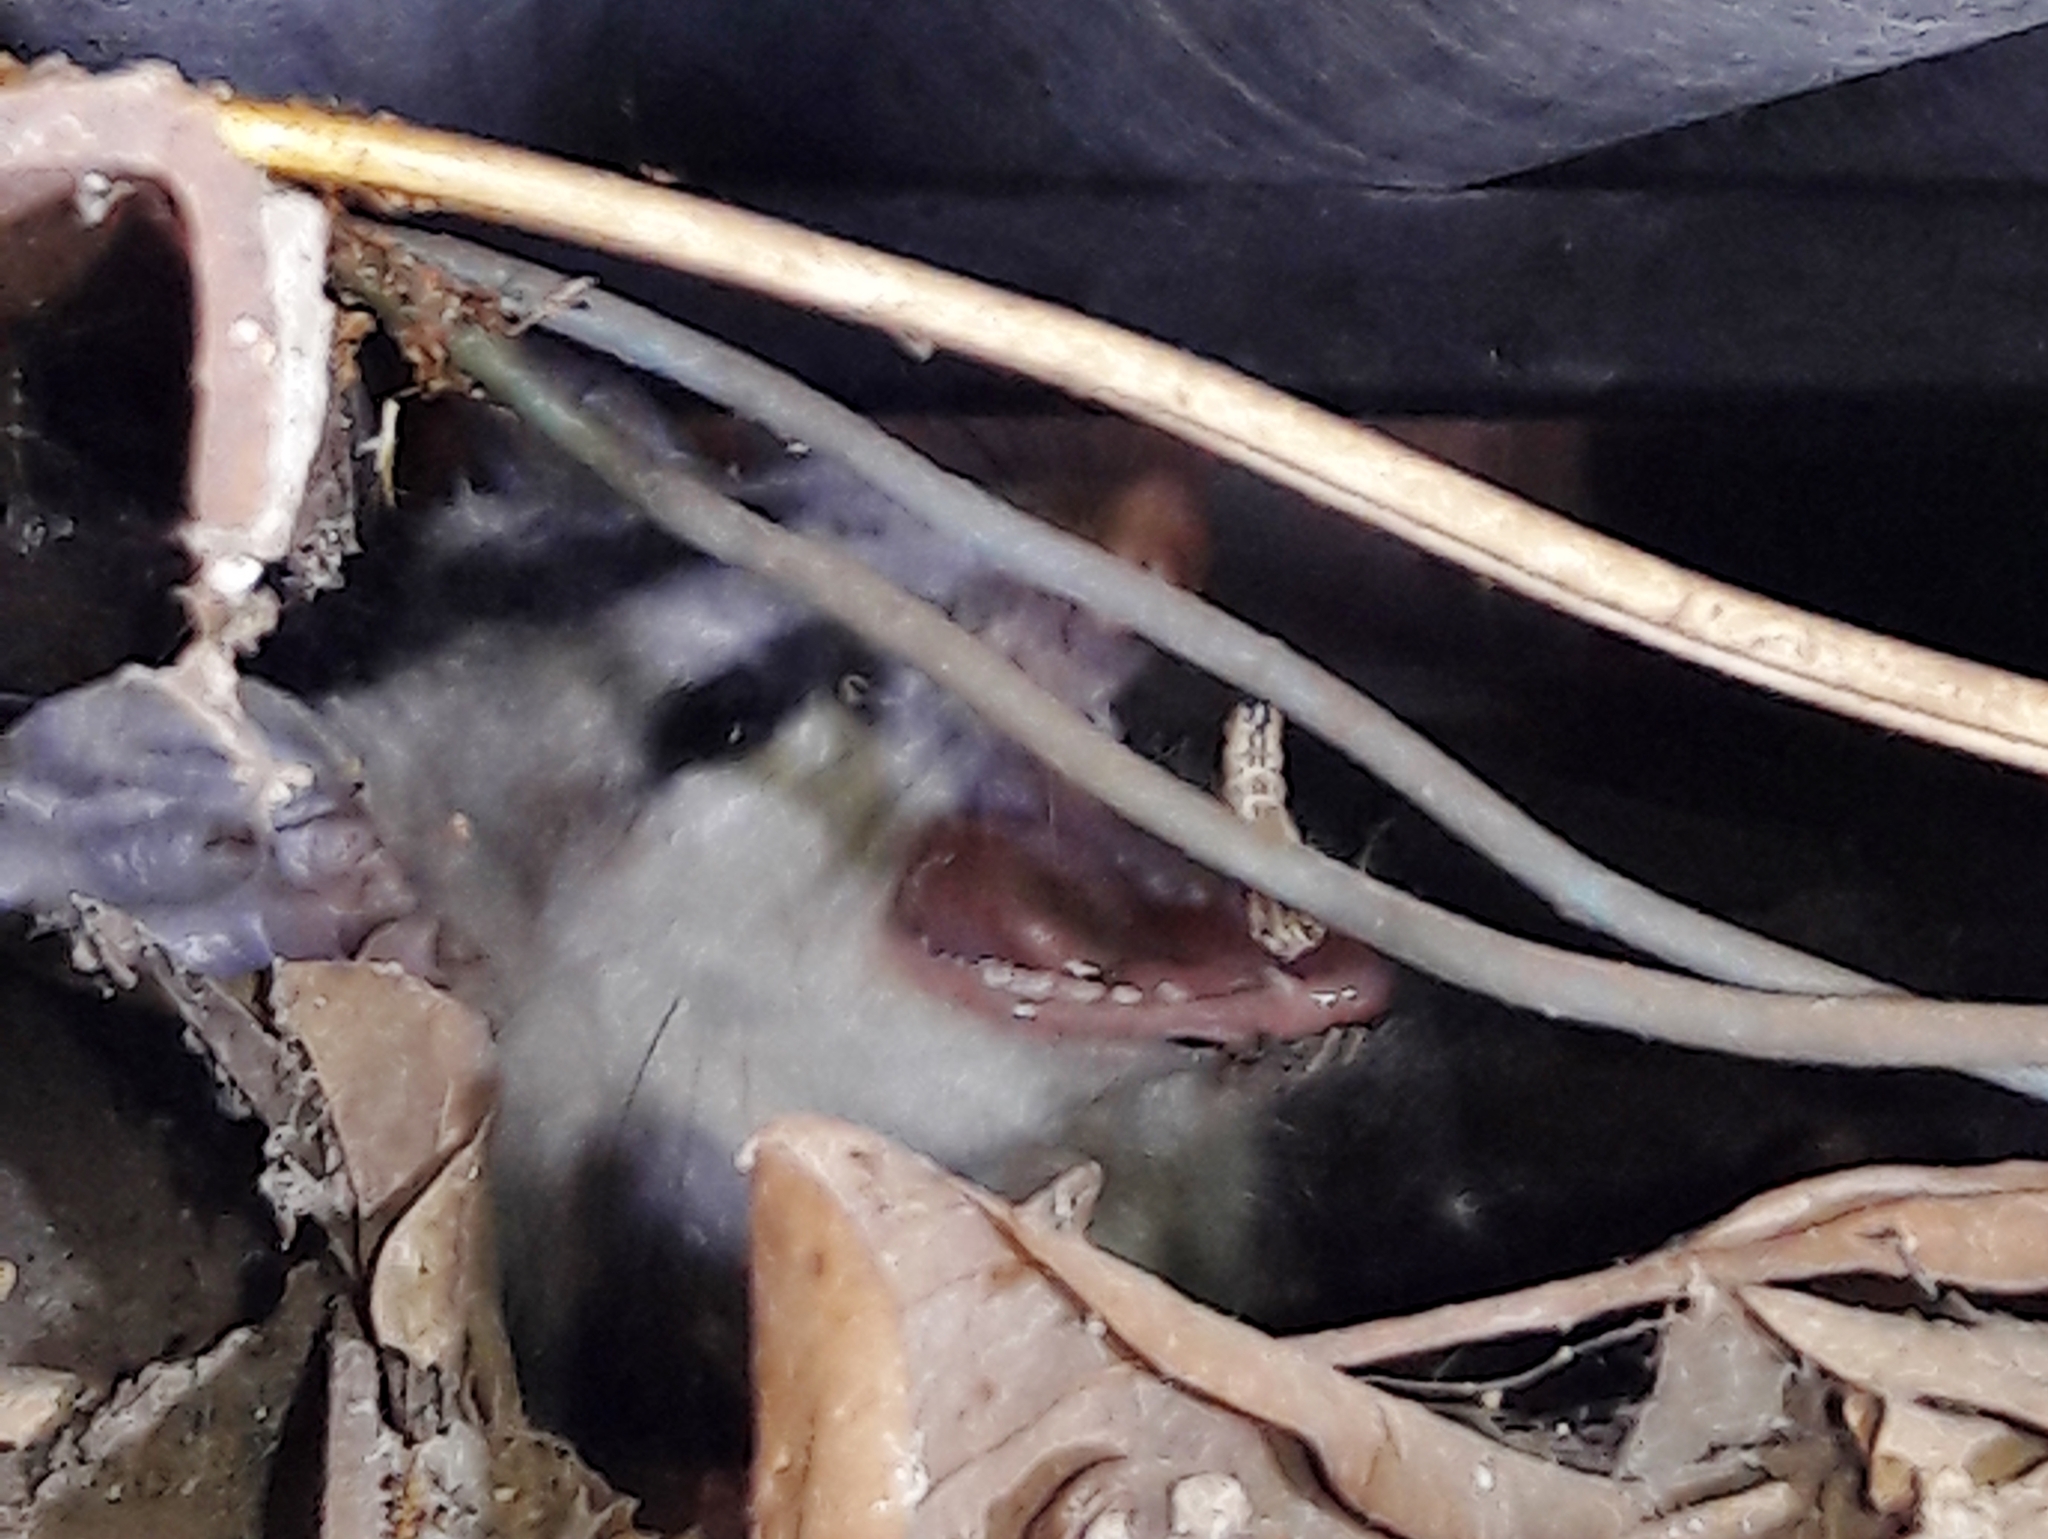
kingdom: Animalia
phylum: Chordata
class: Mammalia
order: Didelphimorphia
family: Didelphidae
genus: Didelphis
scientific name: Didelphis albiventris
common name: White-eared opossum
